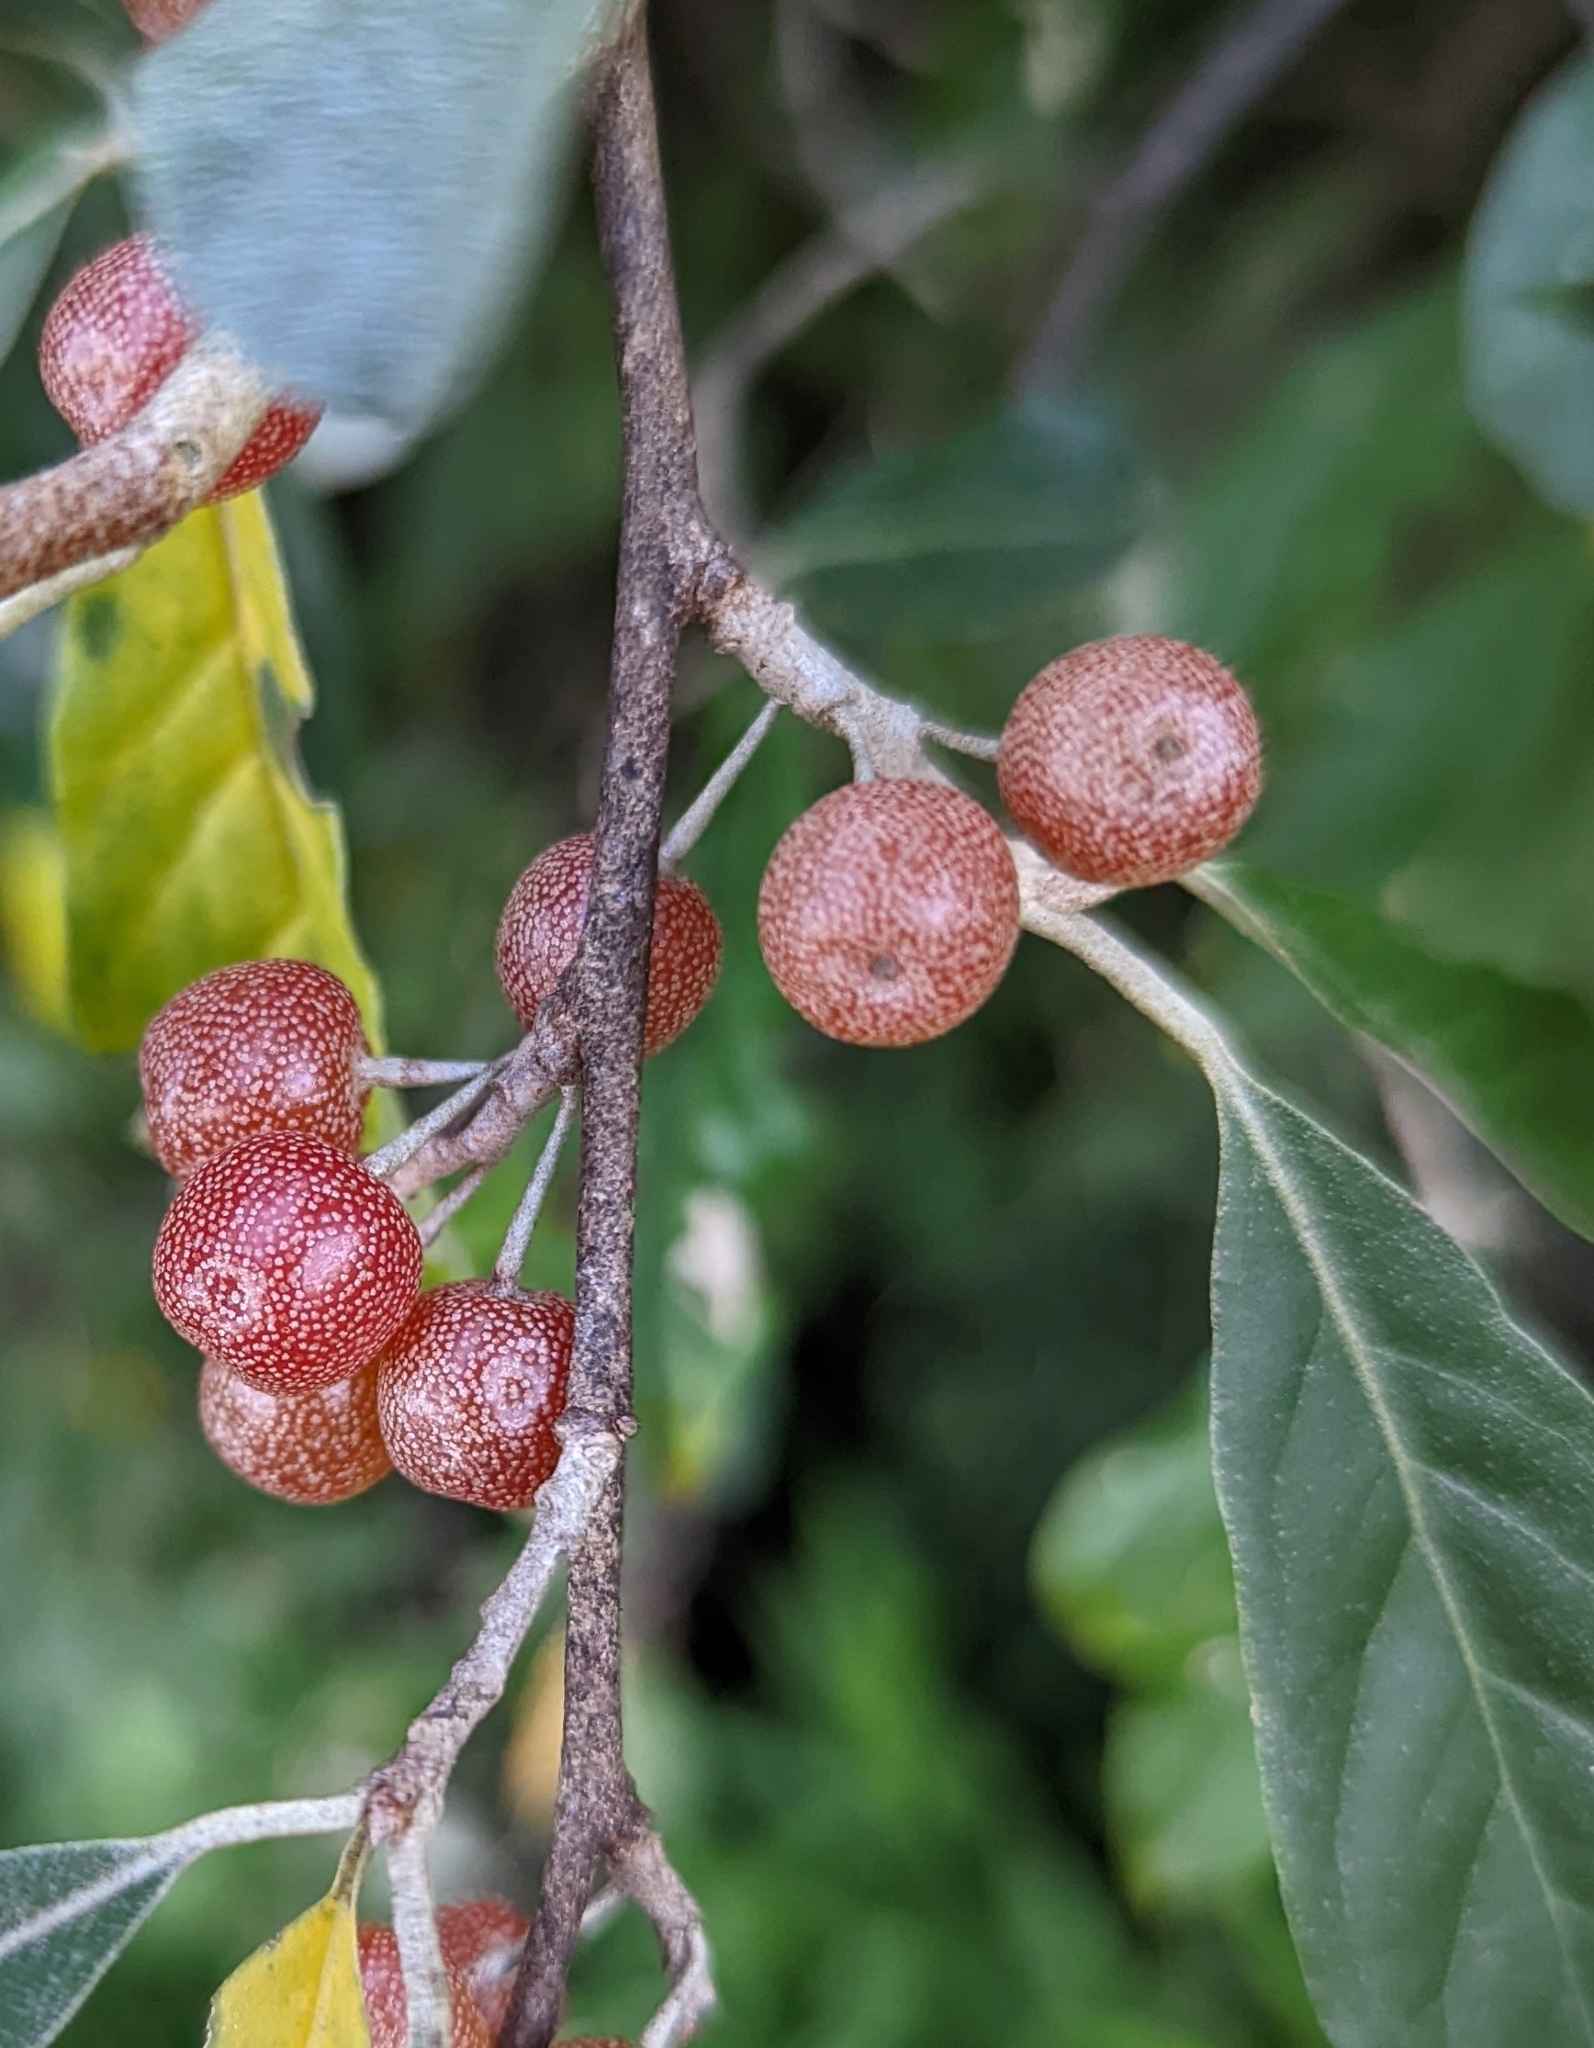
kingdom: Plantae
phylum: Tracheophyta
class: Magnoliopsida
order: Rosales
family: Elaeagnaceae
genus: Elaeagnus
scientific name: Elaeagnus umbellata
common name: Autumn olive
